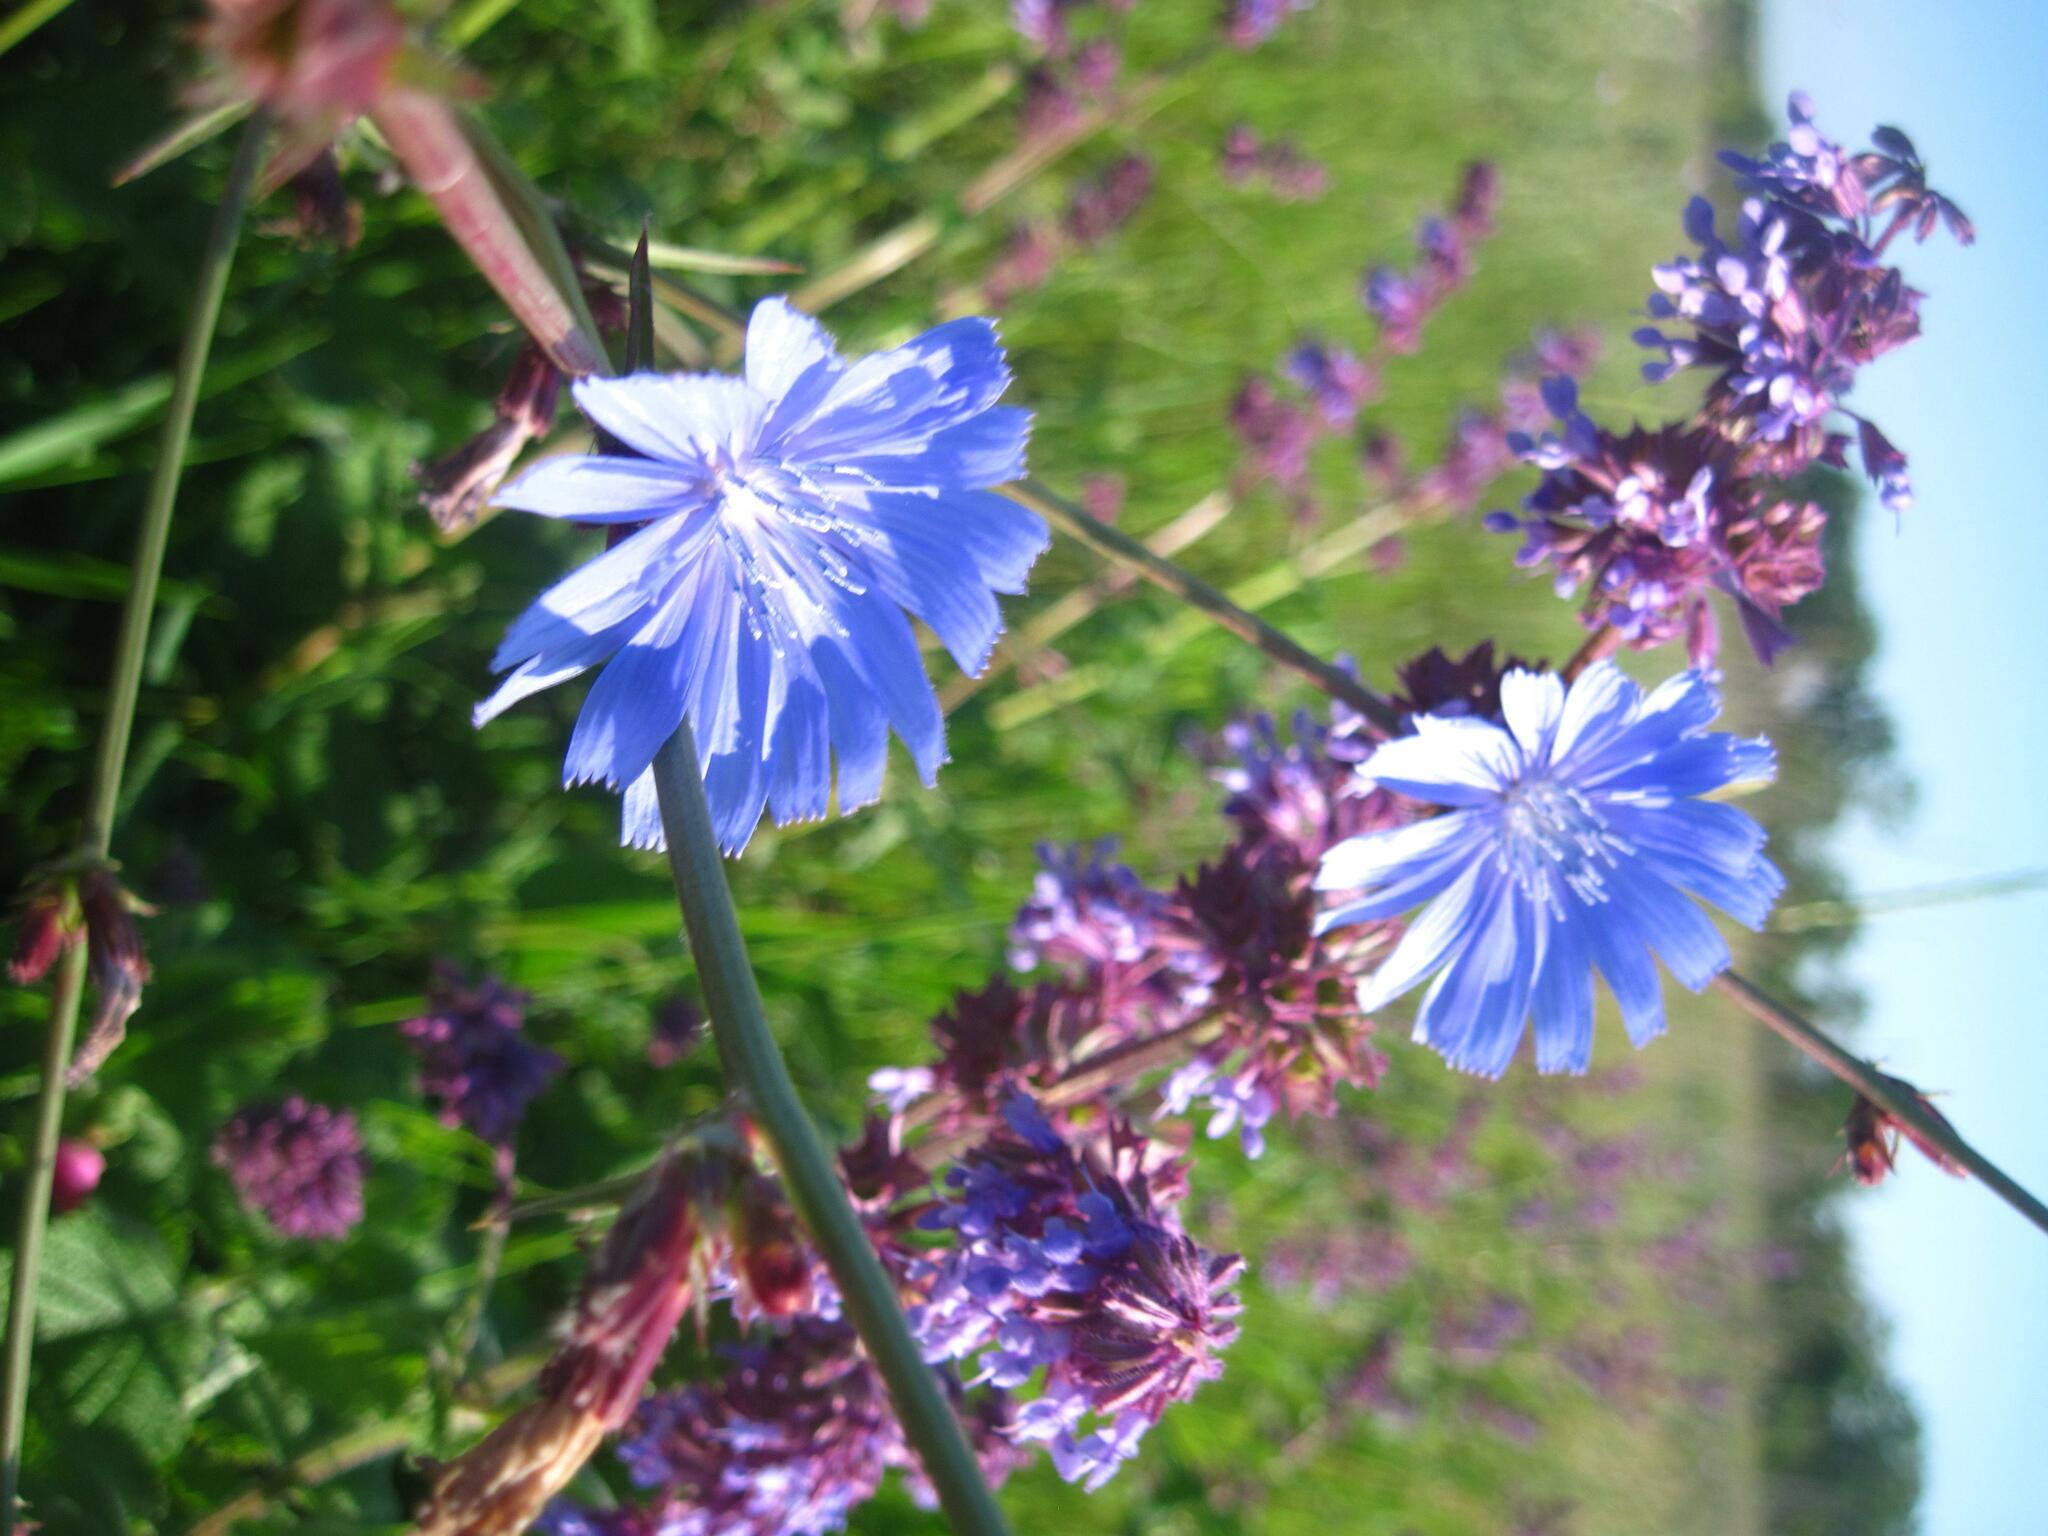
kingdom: Plantae
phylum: Tracheophyta
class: Magnoliopsida
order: Asterales
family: Asteraceae
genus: Cichorium
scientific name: Cichorium intybus
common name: Chicory
